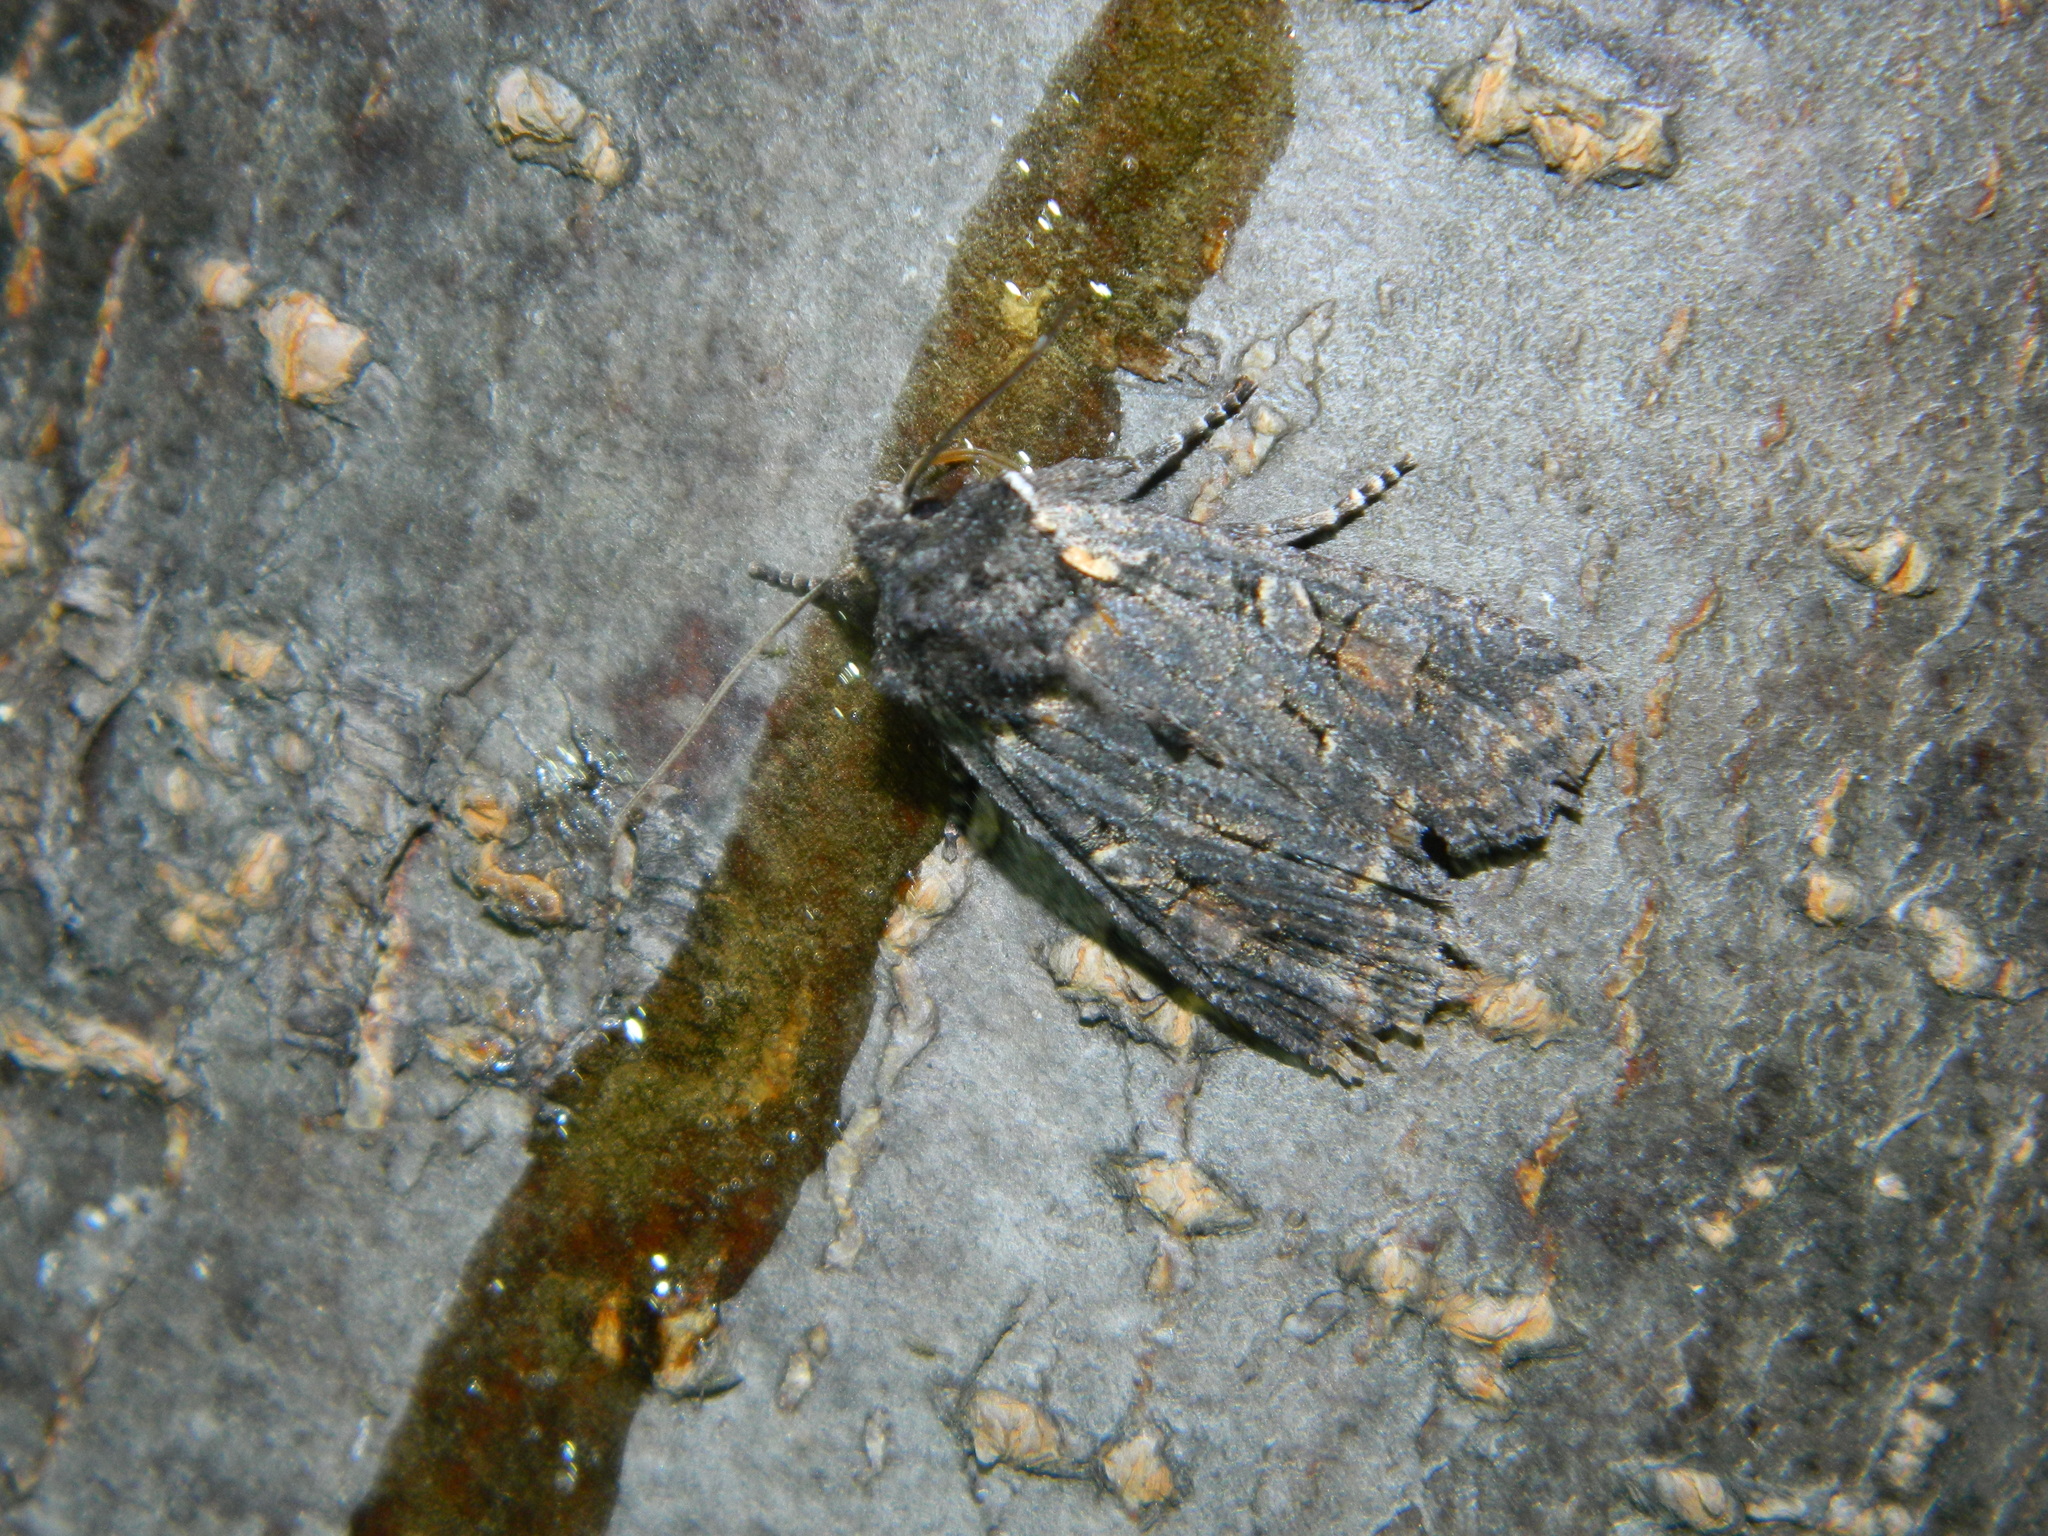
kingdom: Animalia
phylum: Arthropoda
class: Insecta
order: Lepidoptera
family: Noctuidae
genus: Lithophane
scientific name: Lithophane pexata
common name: Plush-naped pinion moth
